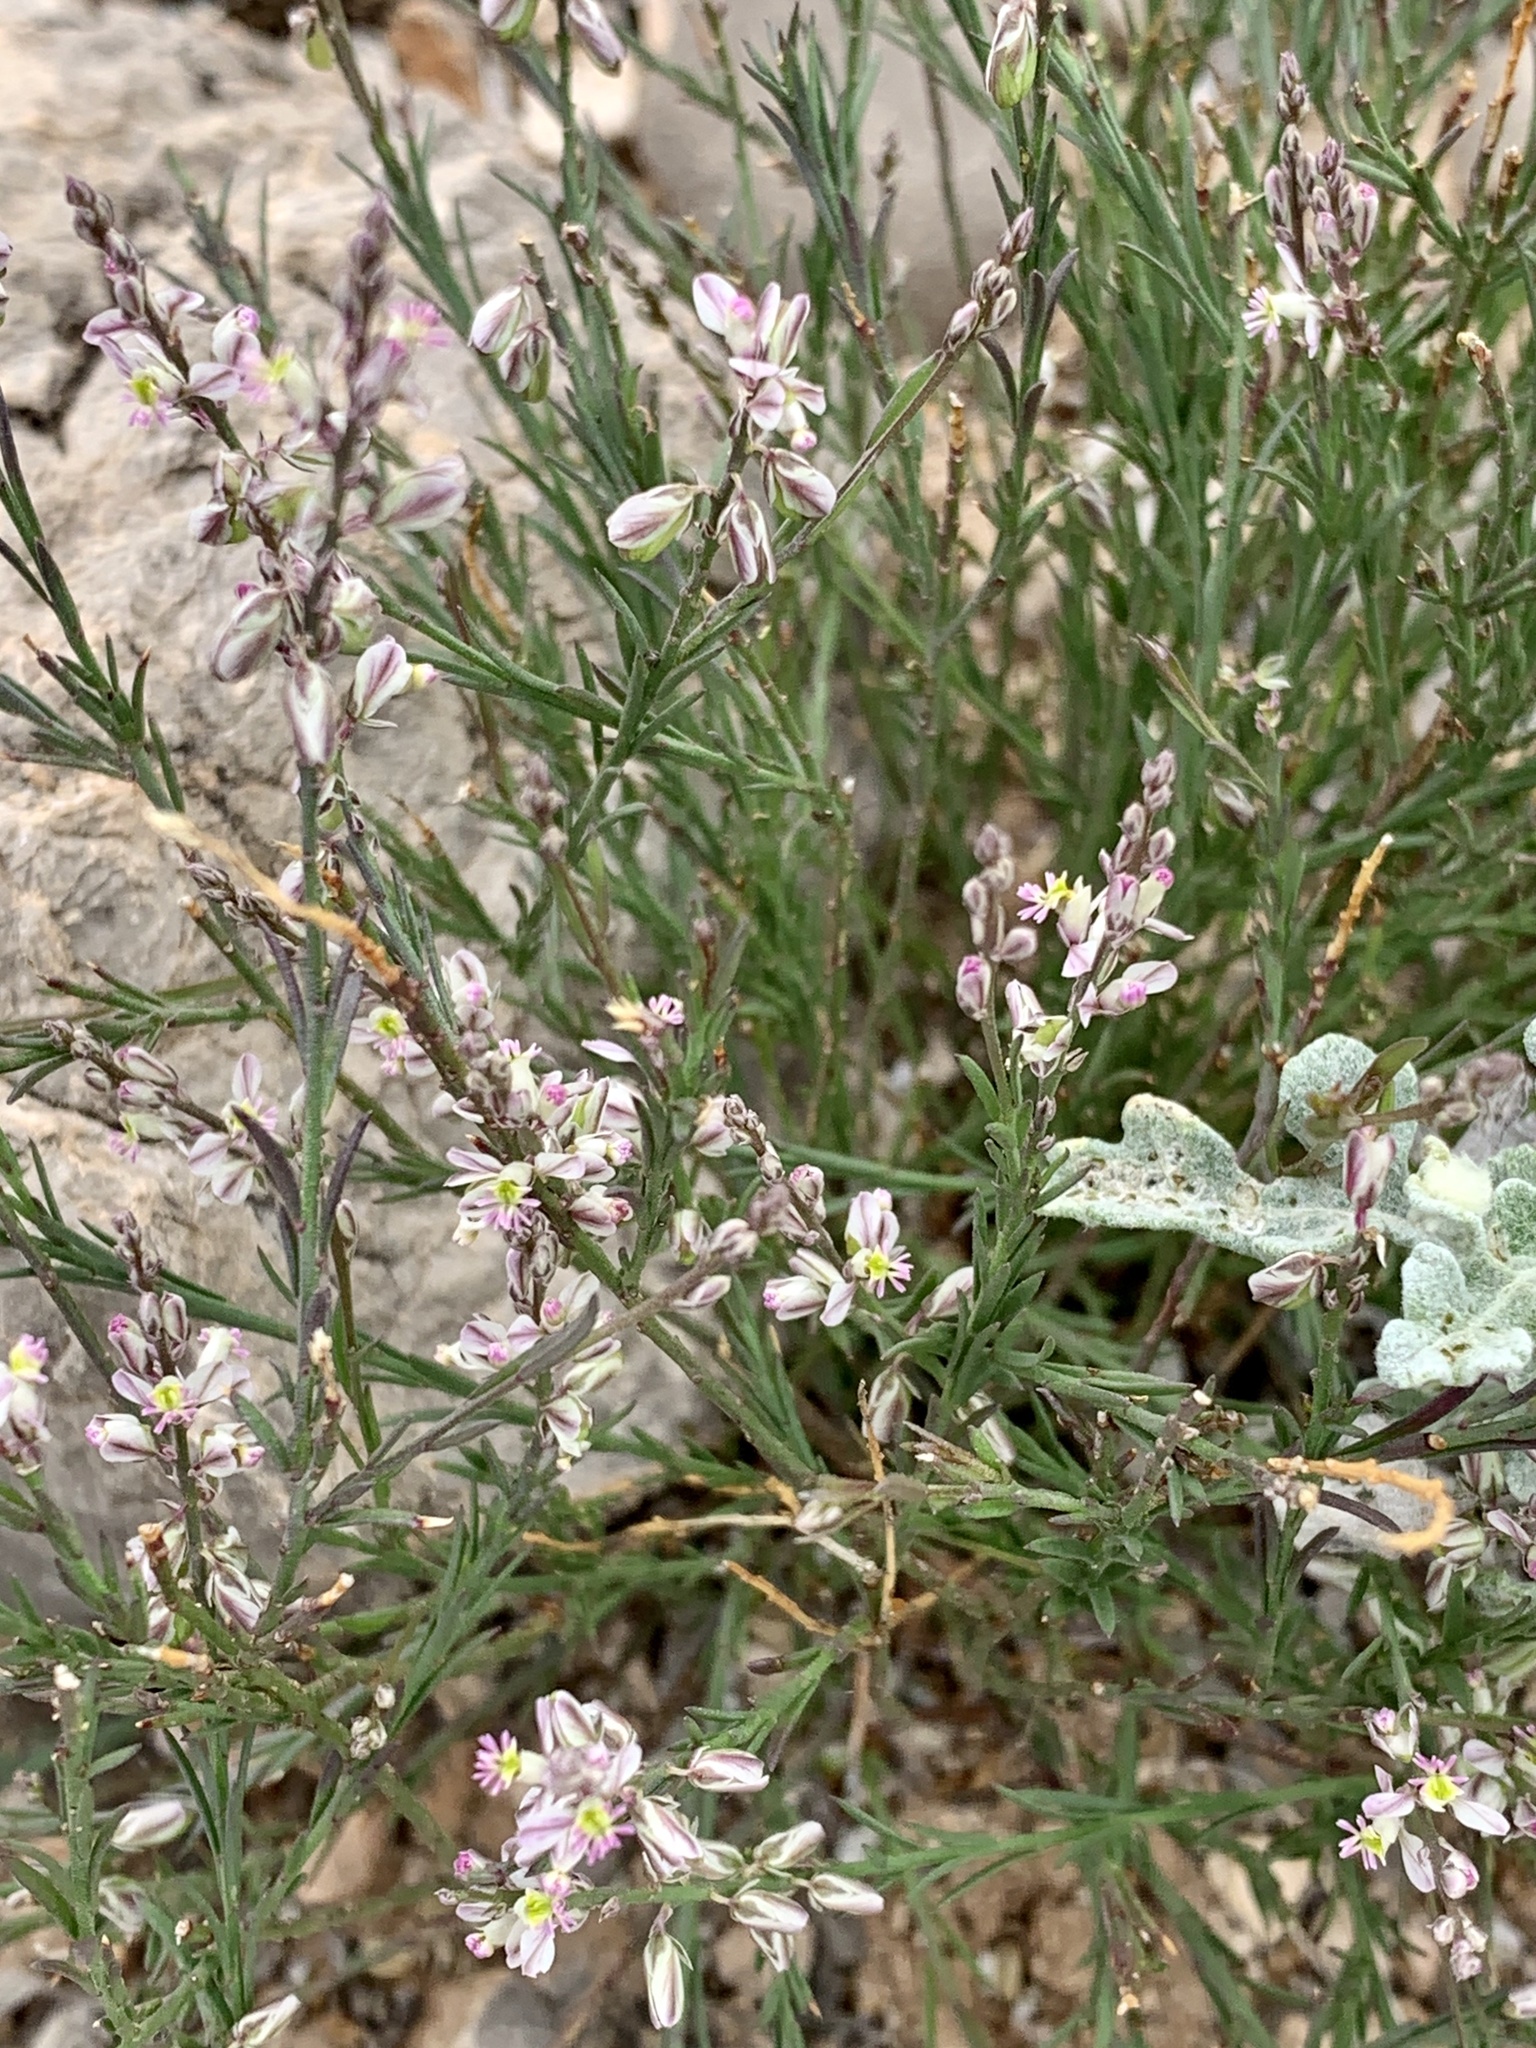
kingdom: Plantae
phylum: Tracheophyta
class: Magnoliopsida
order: Fabales
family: Polygalaceae
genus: Polygala
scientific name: Polygala scoparioides
